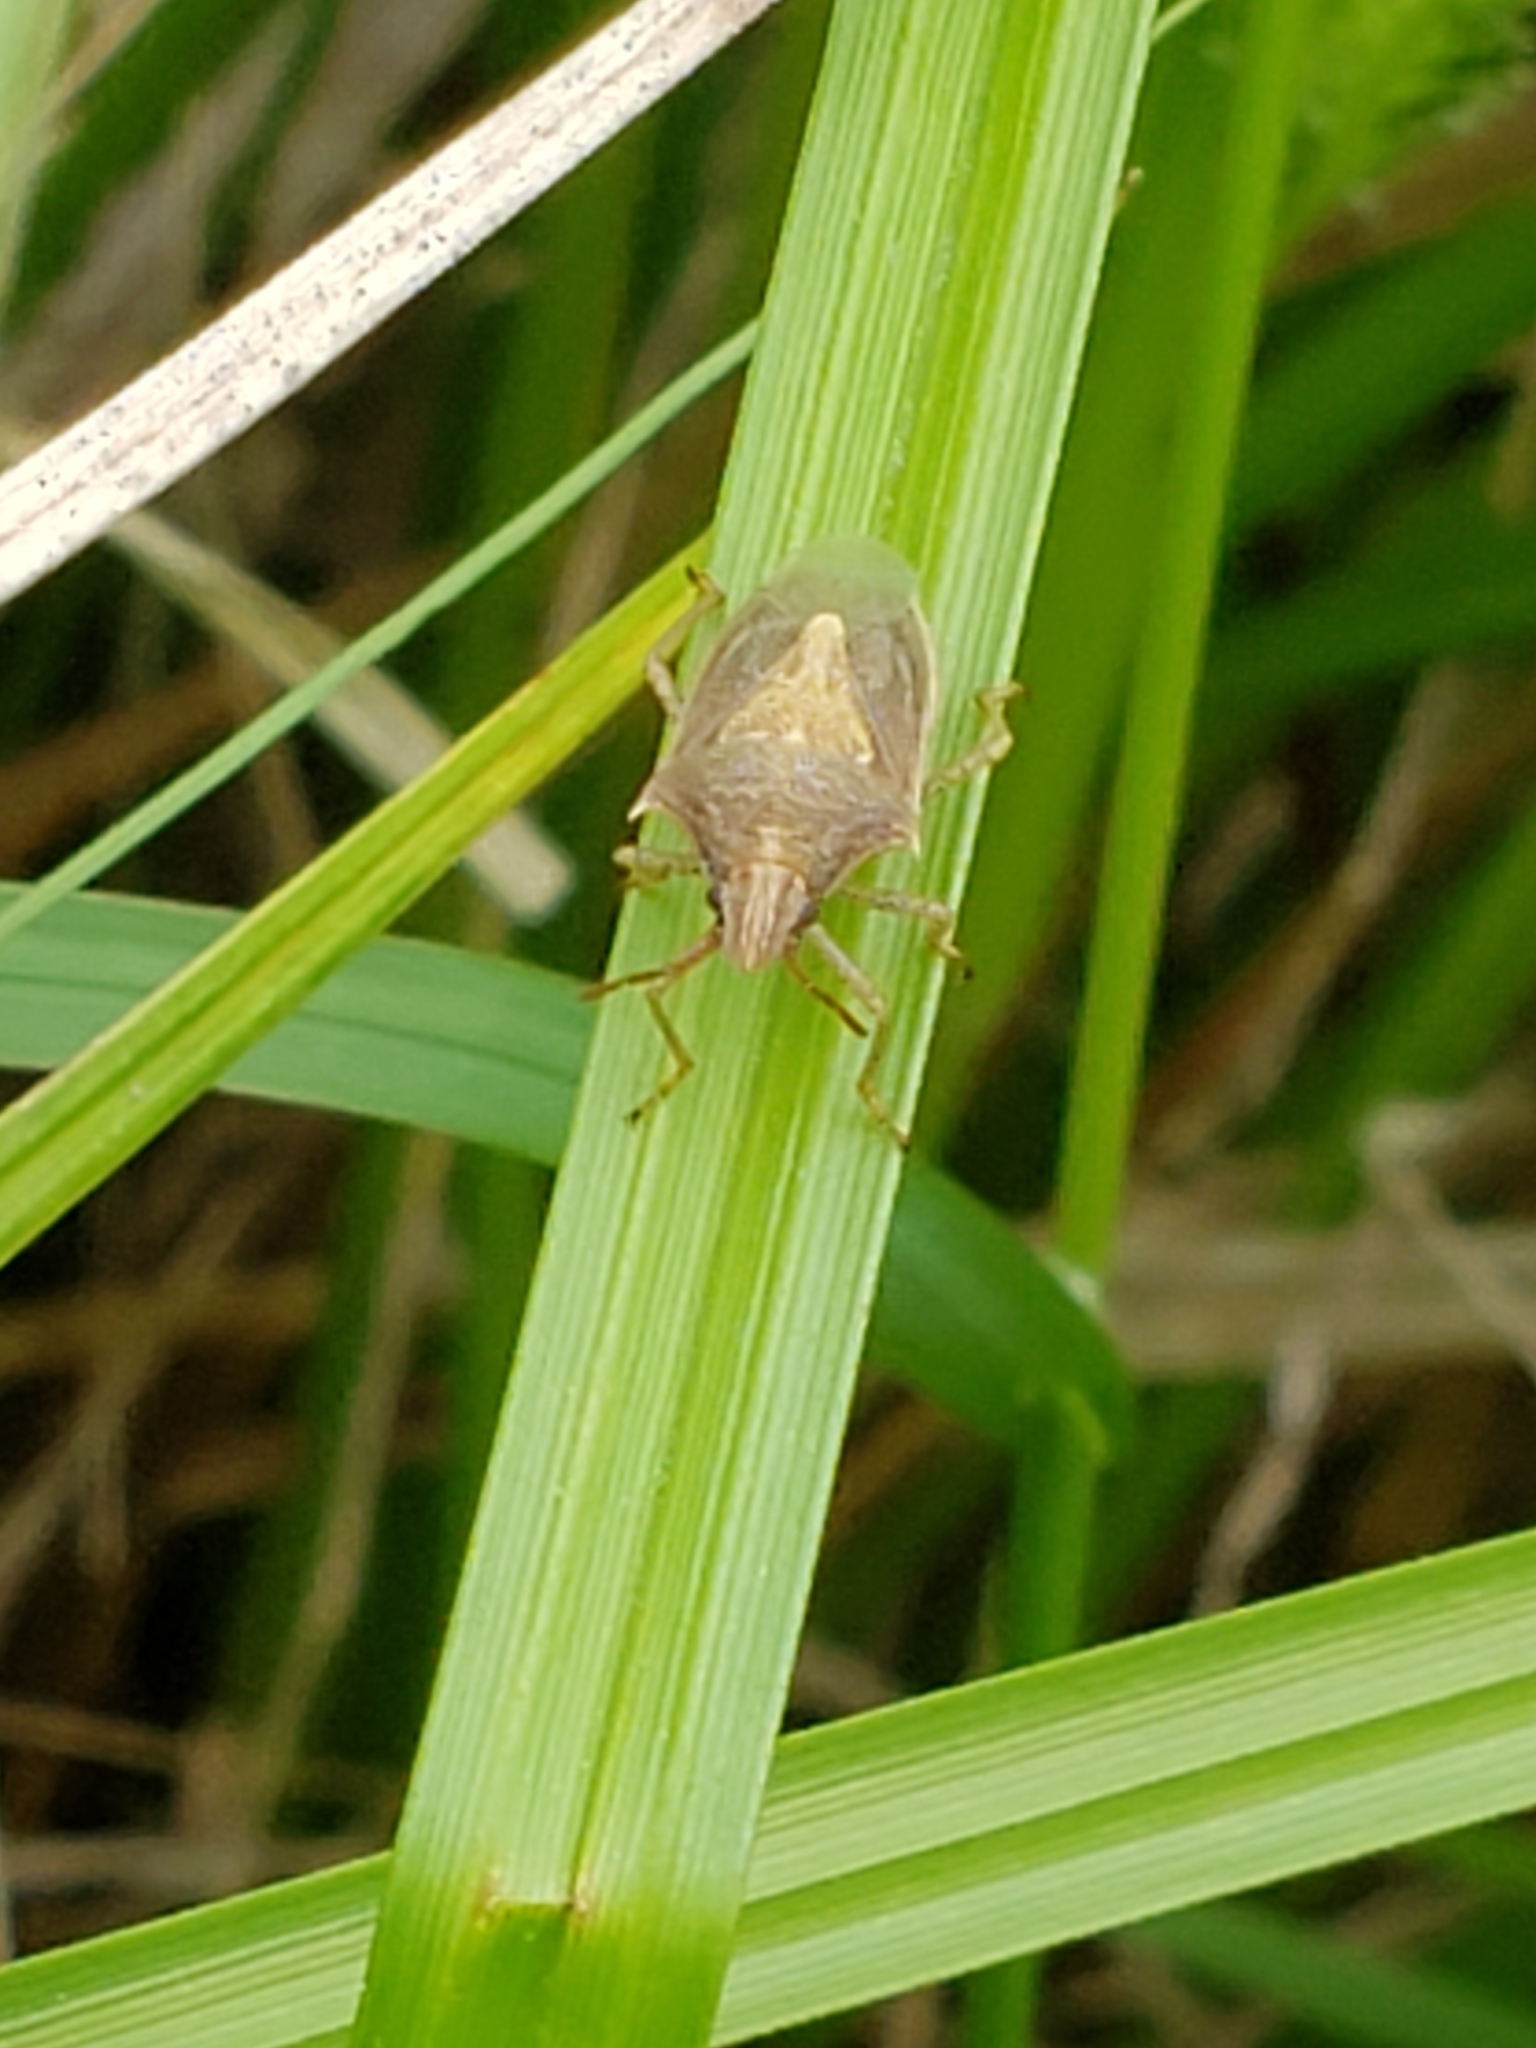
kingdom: Animalia
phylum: Arthropoda
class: Insecta
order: Hemiptera
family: Pentatomidae
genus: Oebalus
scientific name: Oebalus pugnax
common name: Rice stink bug
